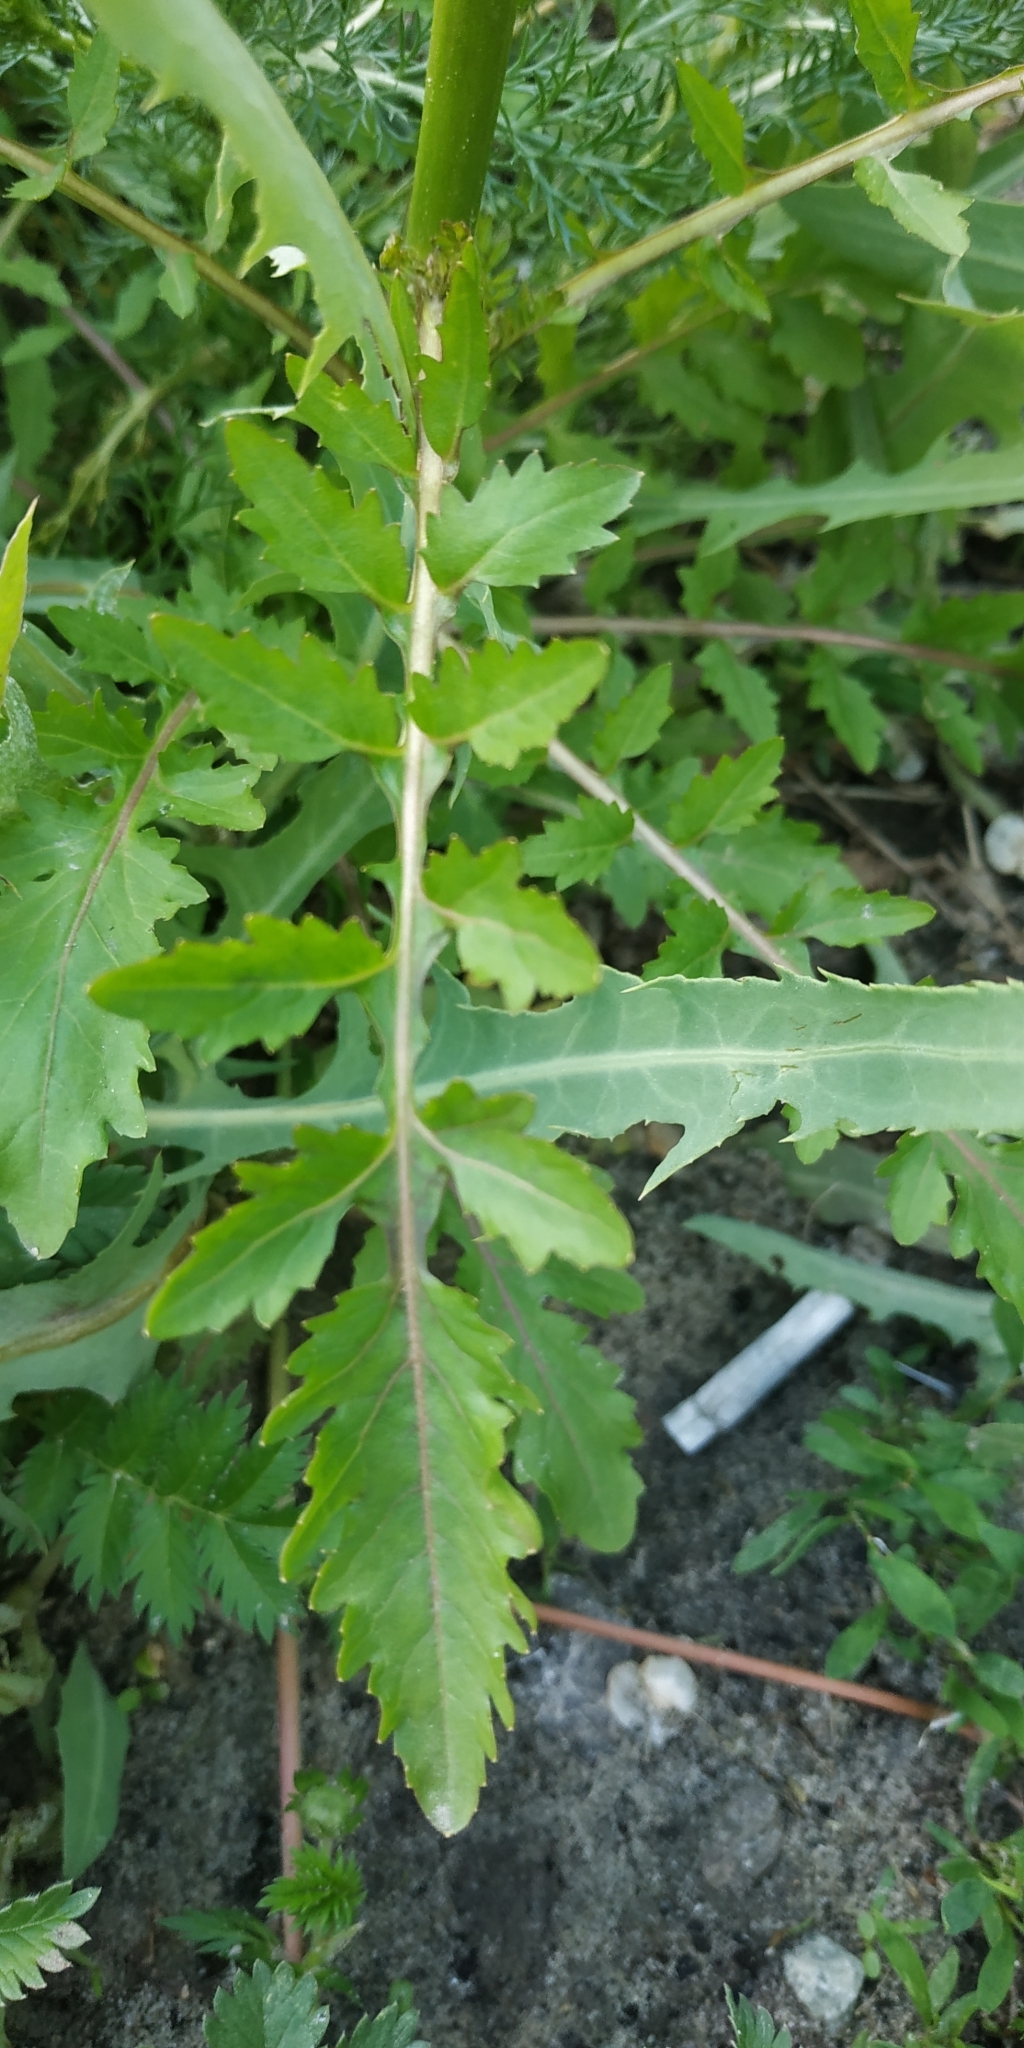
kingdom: Plantae
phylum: Tracheophyta
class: Magnoliopsida
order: Brassicales
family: Brassicaceae
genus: Rorippa
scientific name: Rorippa palustris
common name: Marsh yellow-cress
